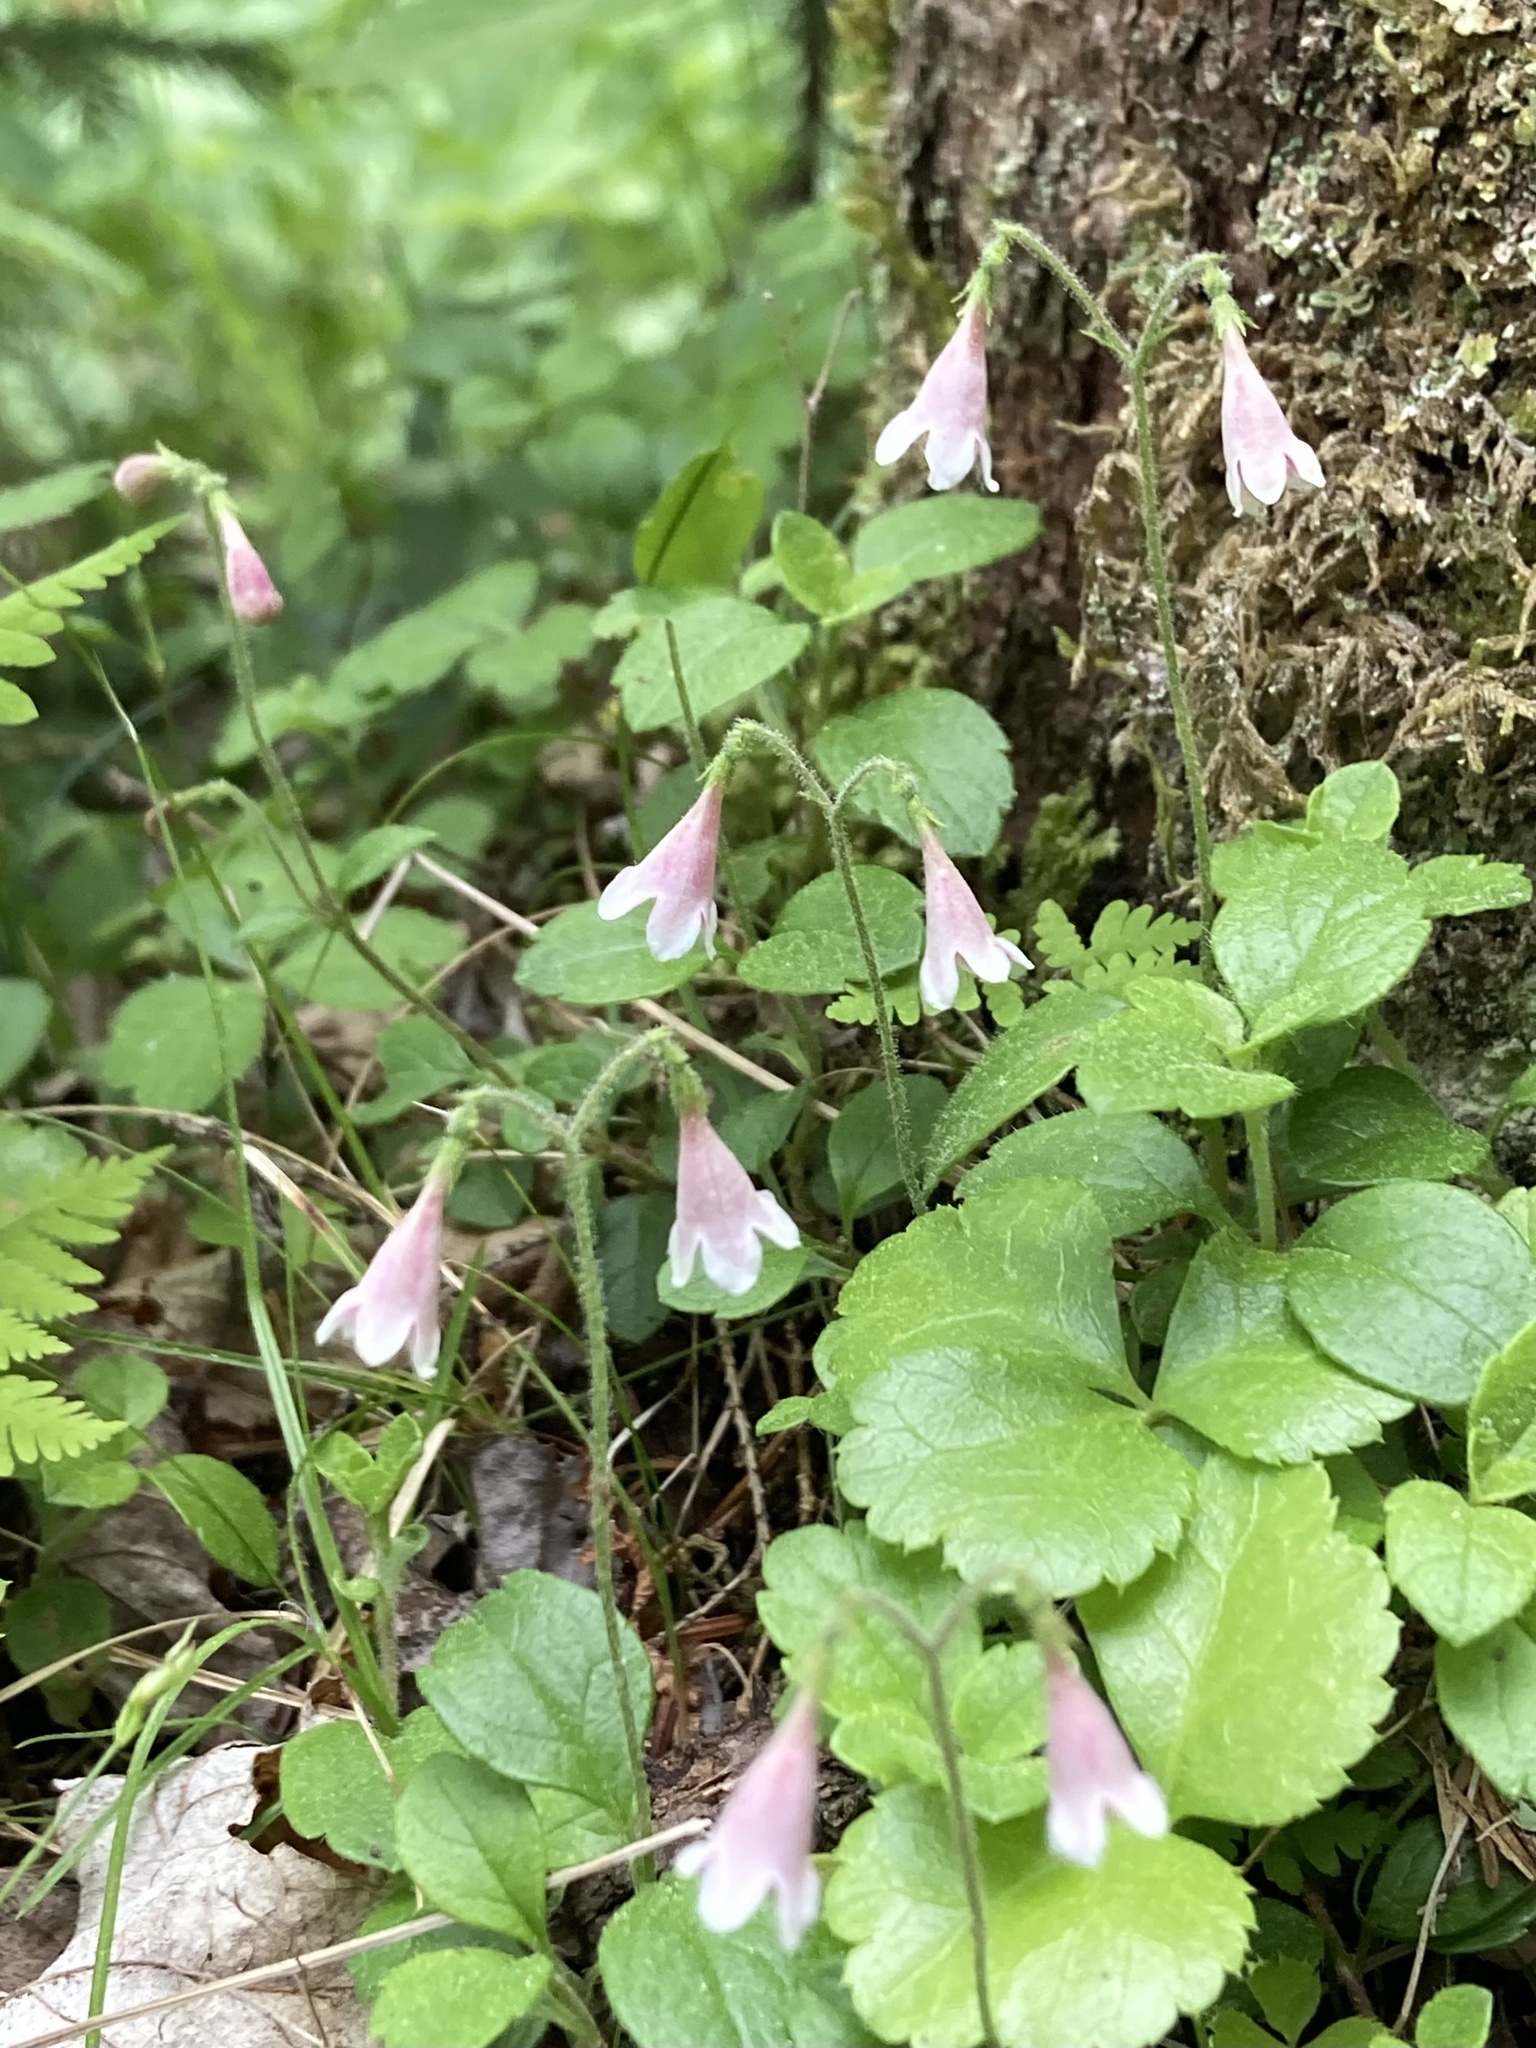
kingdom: Plantae
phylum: Tracheophyta
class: Magnoliopsida
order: Dipsacales
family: Caprifoliaceae
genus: Linnaea
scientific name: Linnaea borealis
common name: Twinflower
